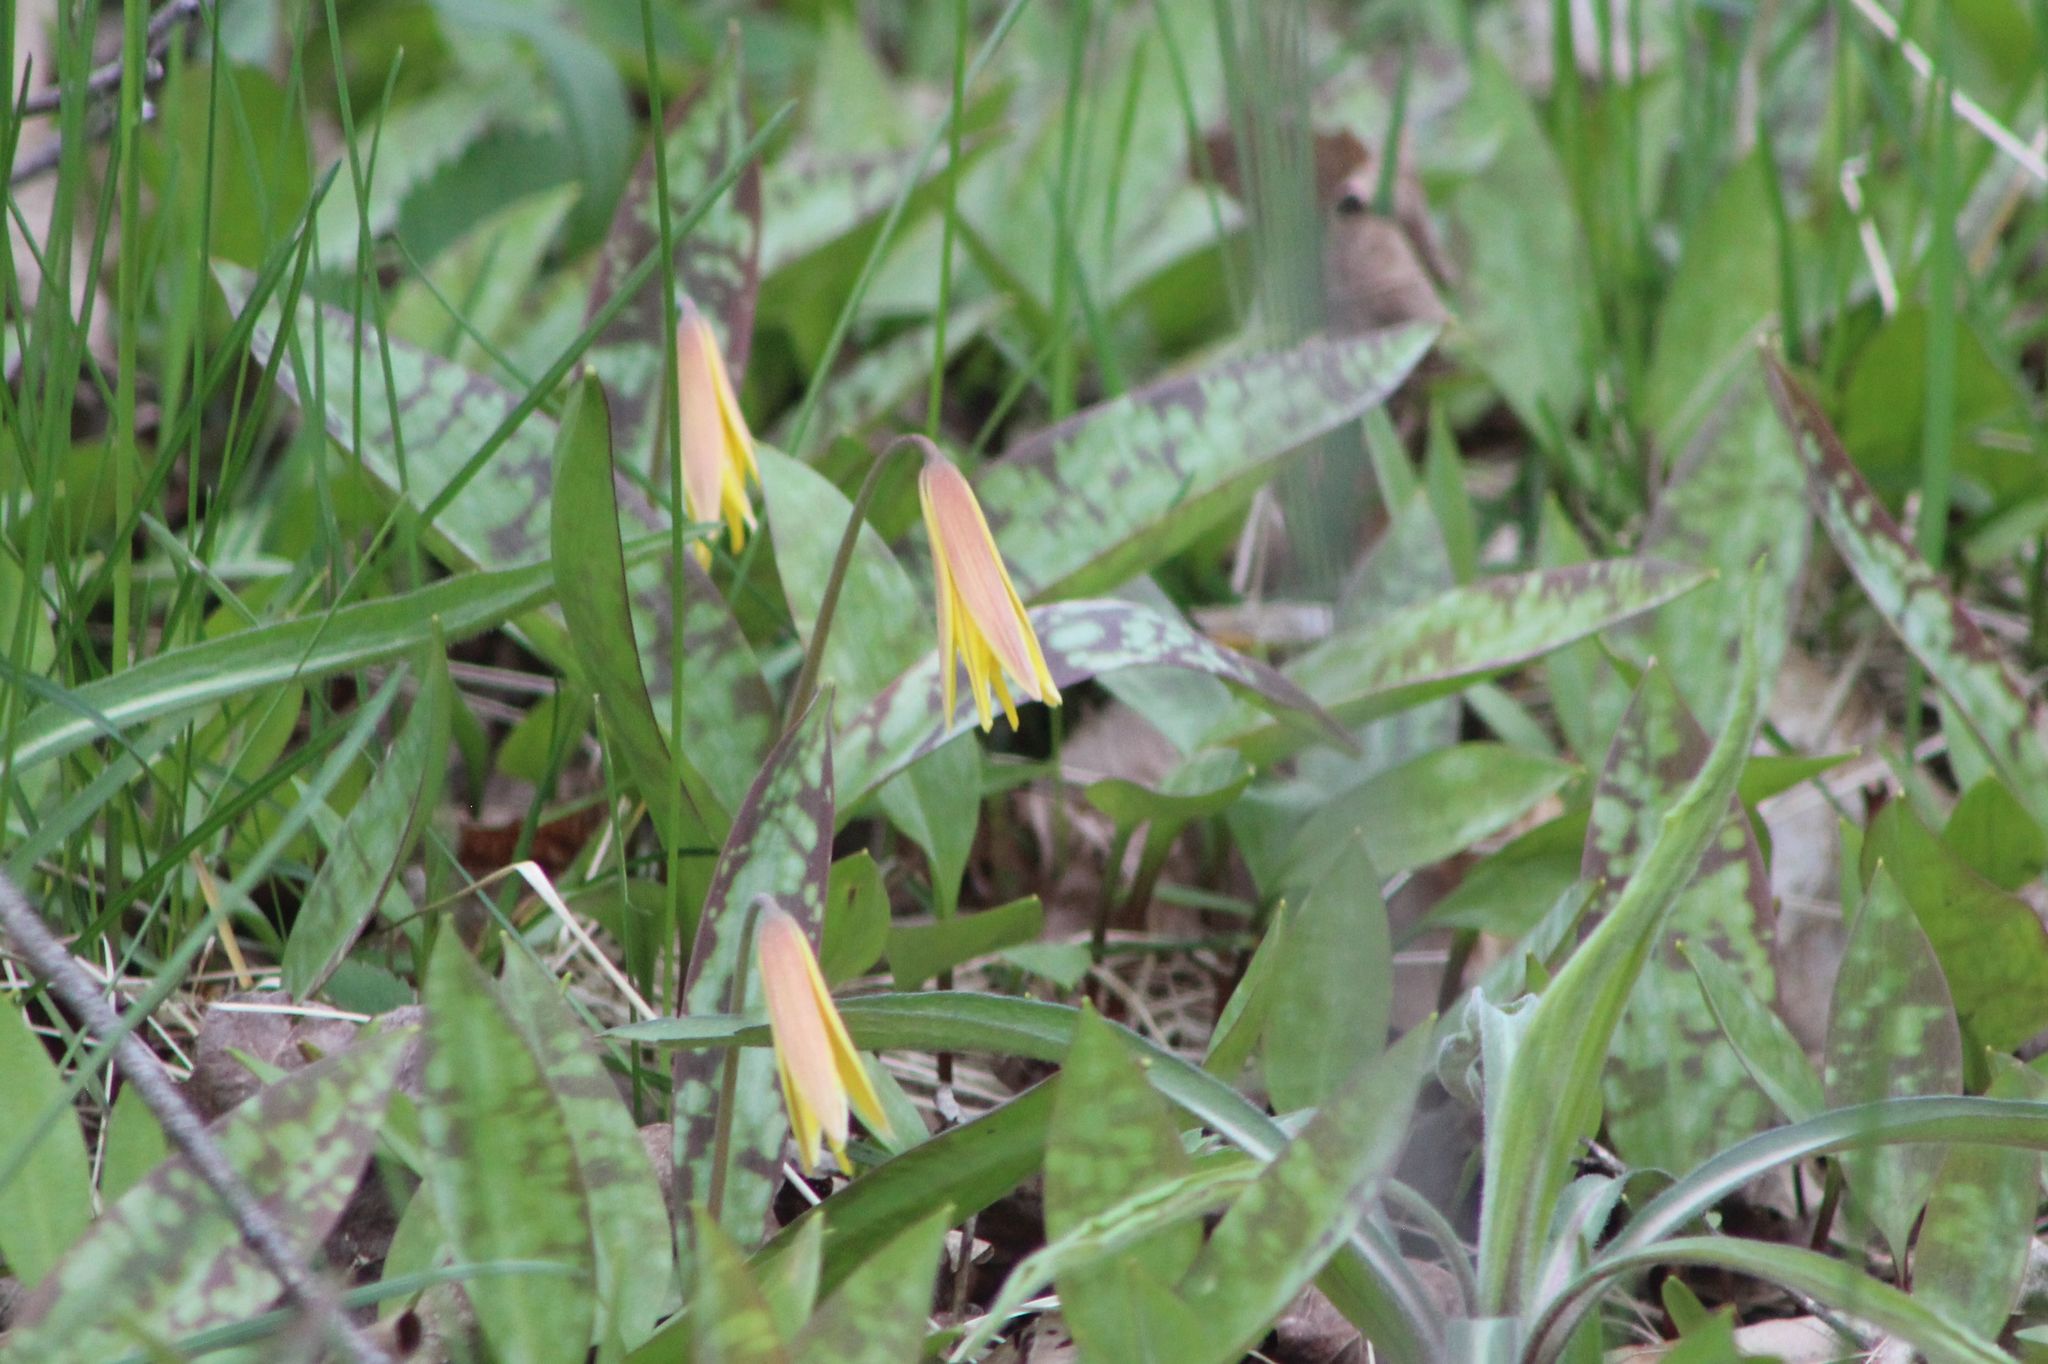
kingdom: Plantae
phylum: Tracheophyta
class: Liliopsida
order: Liliales
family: Liliaceae
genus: Erythronium
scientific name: Erythronium americanum
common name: Yellow adder's-tongue
